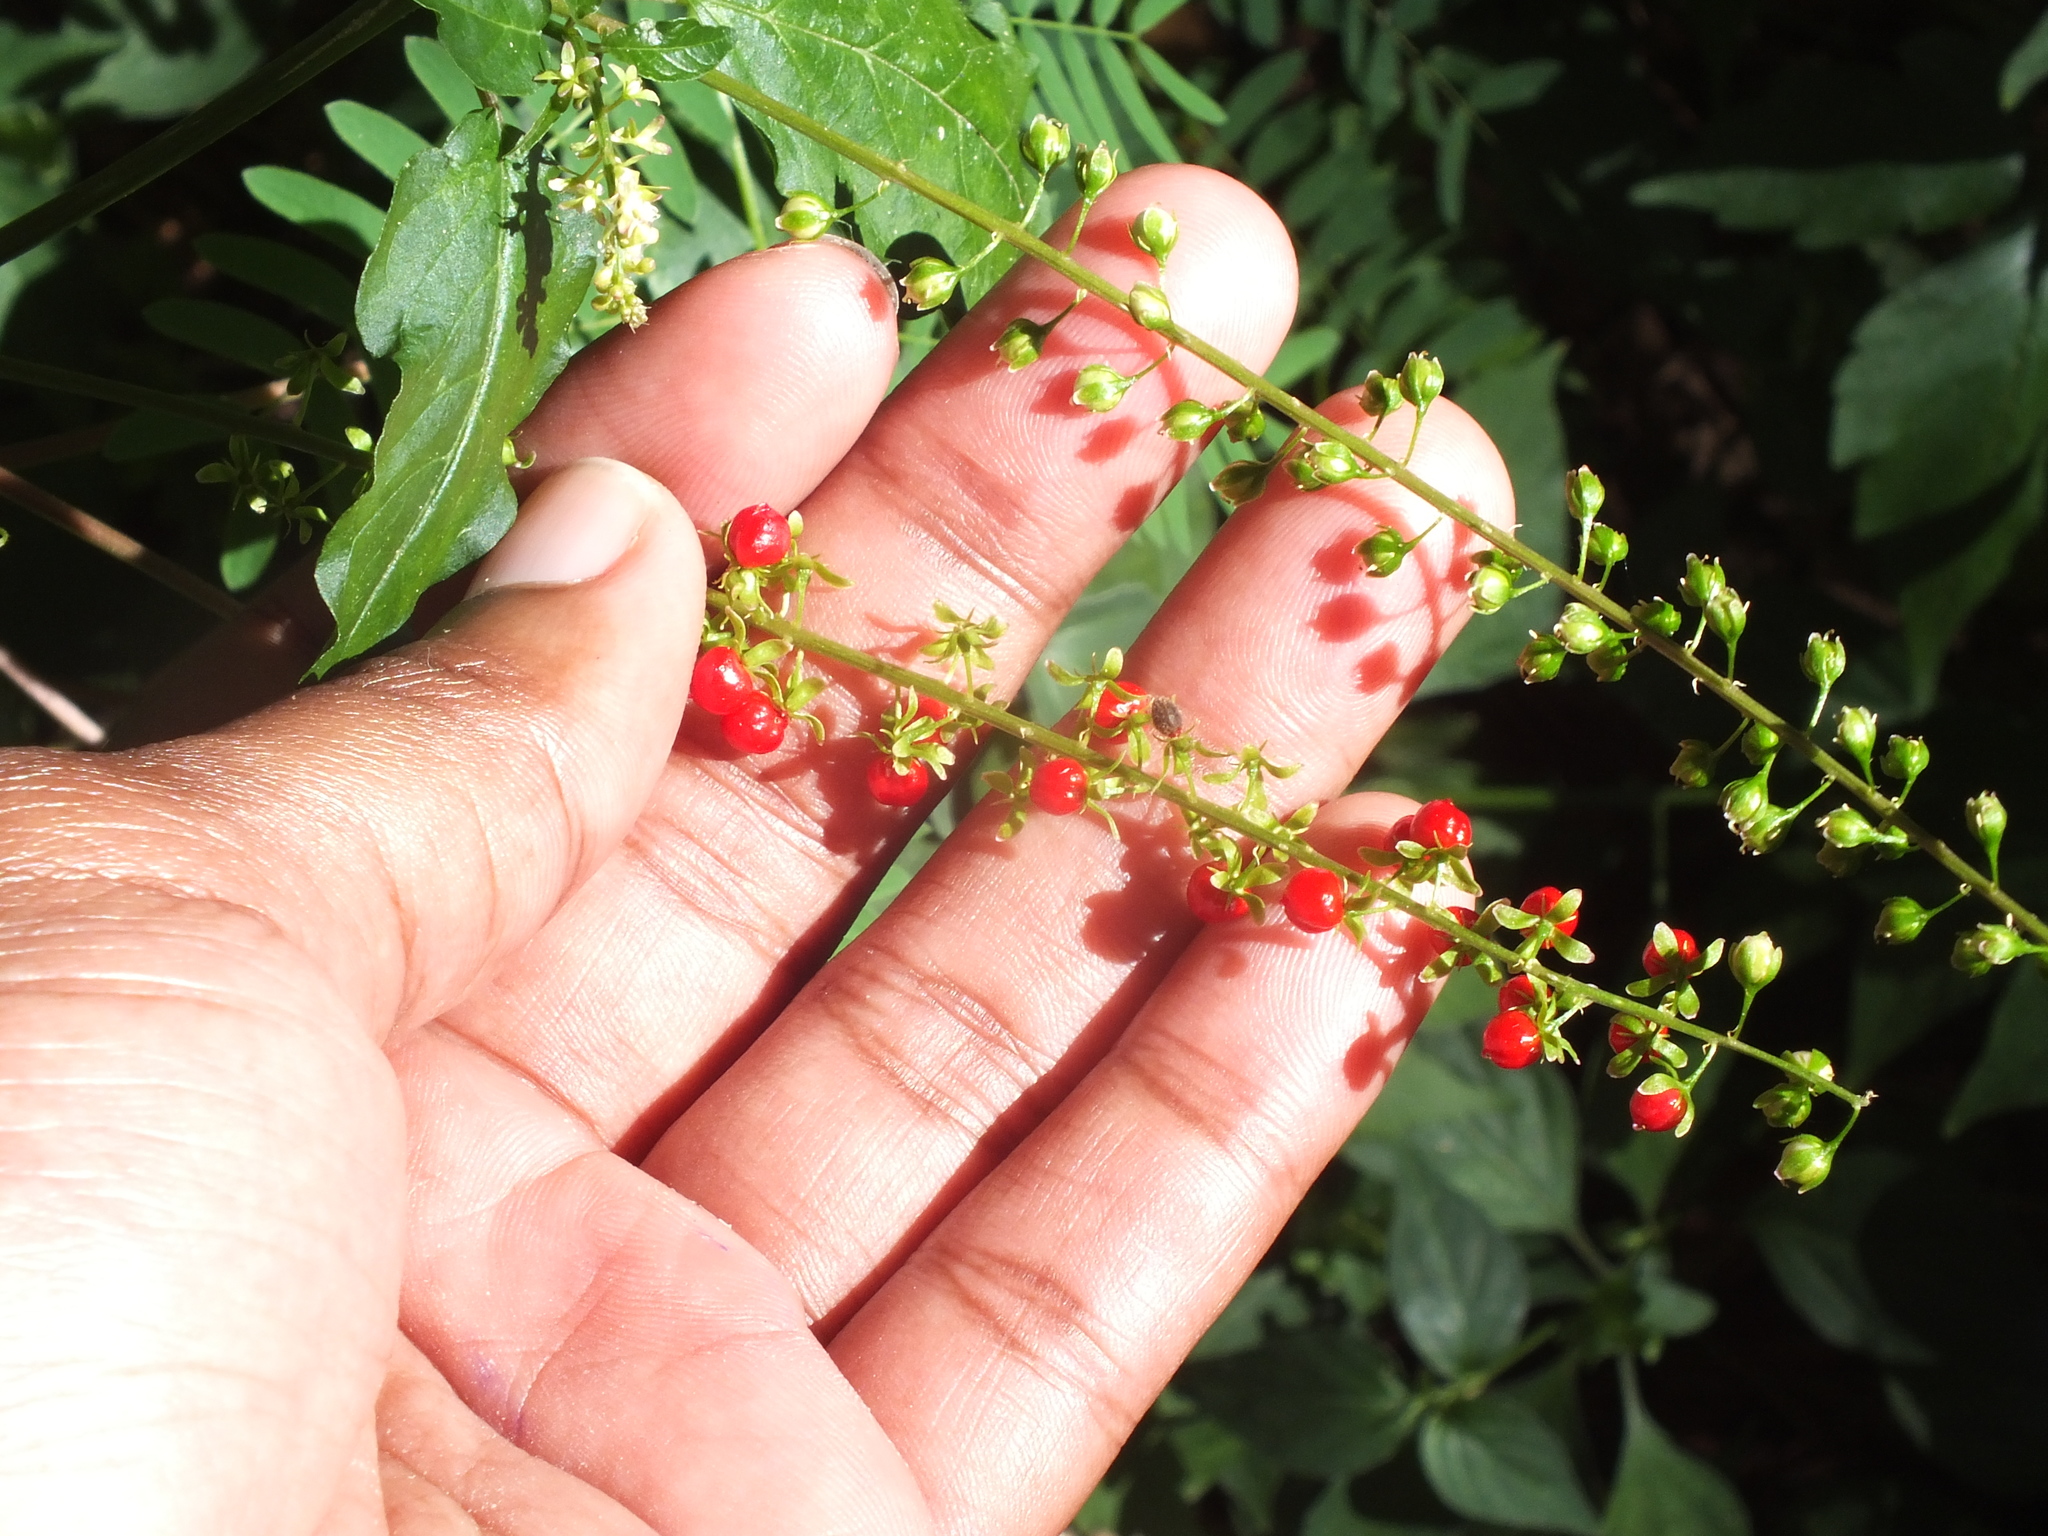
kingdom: Plantae
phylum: Tracheophyta
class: Magnoliopsida
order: Caryophyllales
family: Phytolaccaceae
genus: Rivina
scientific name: Rivina humilis
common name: Rougeplant
